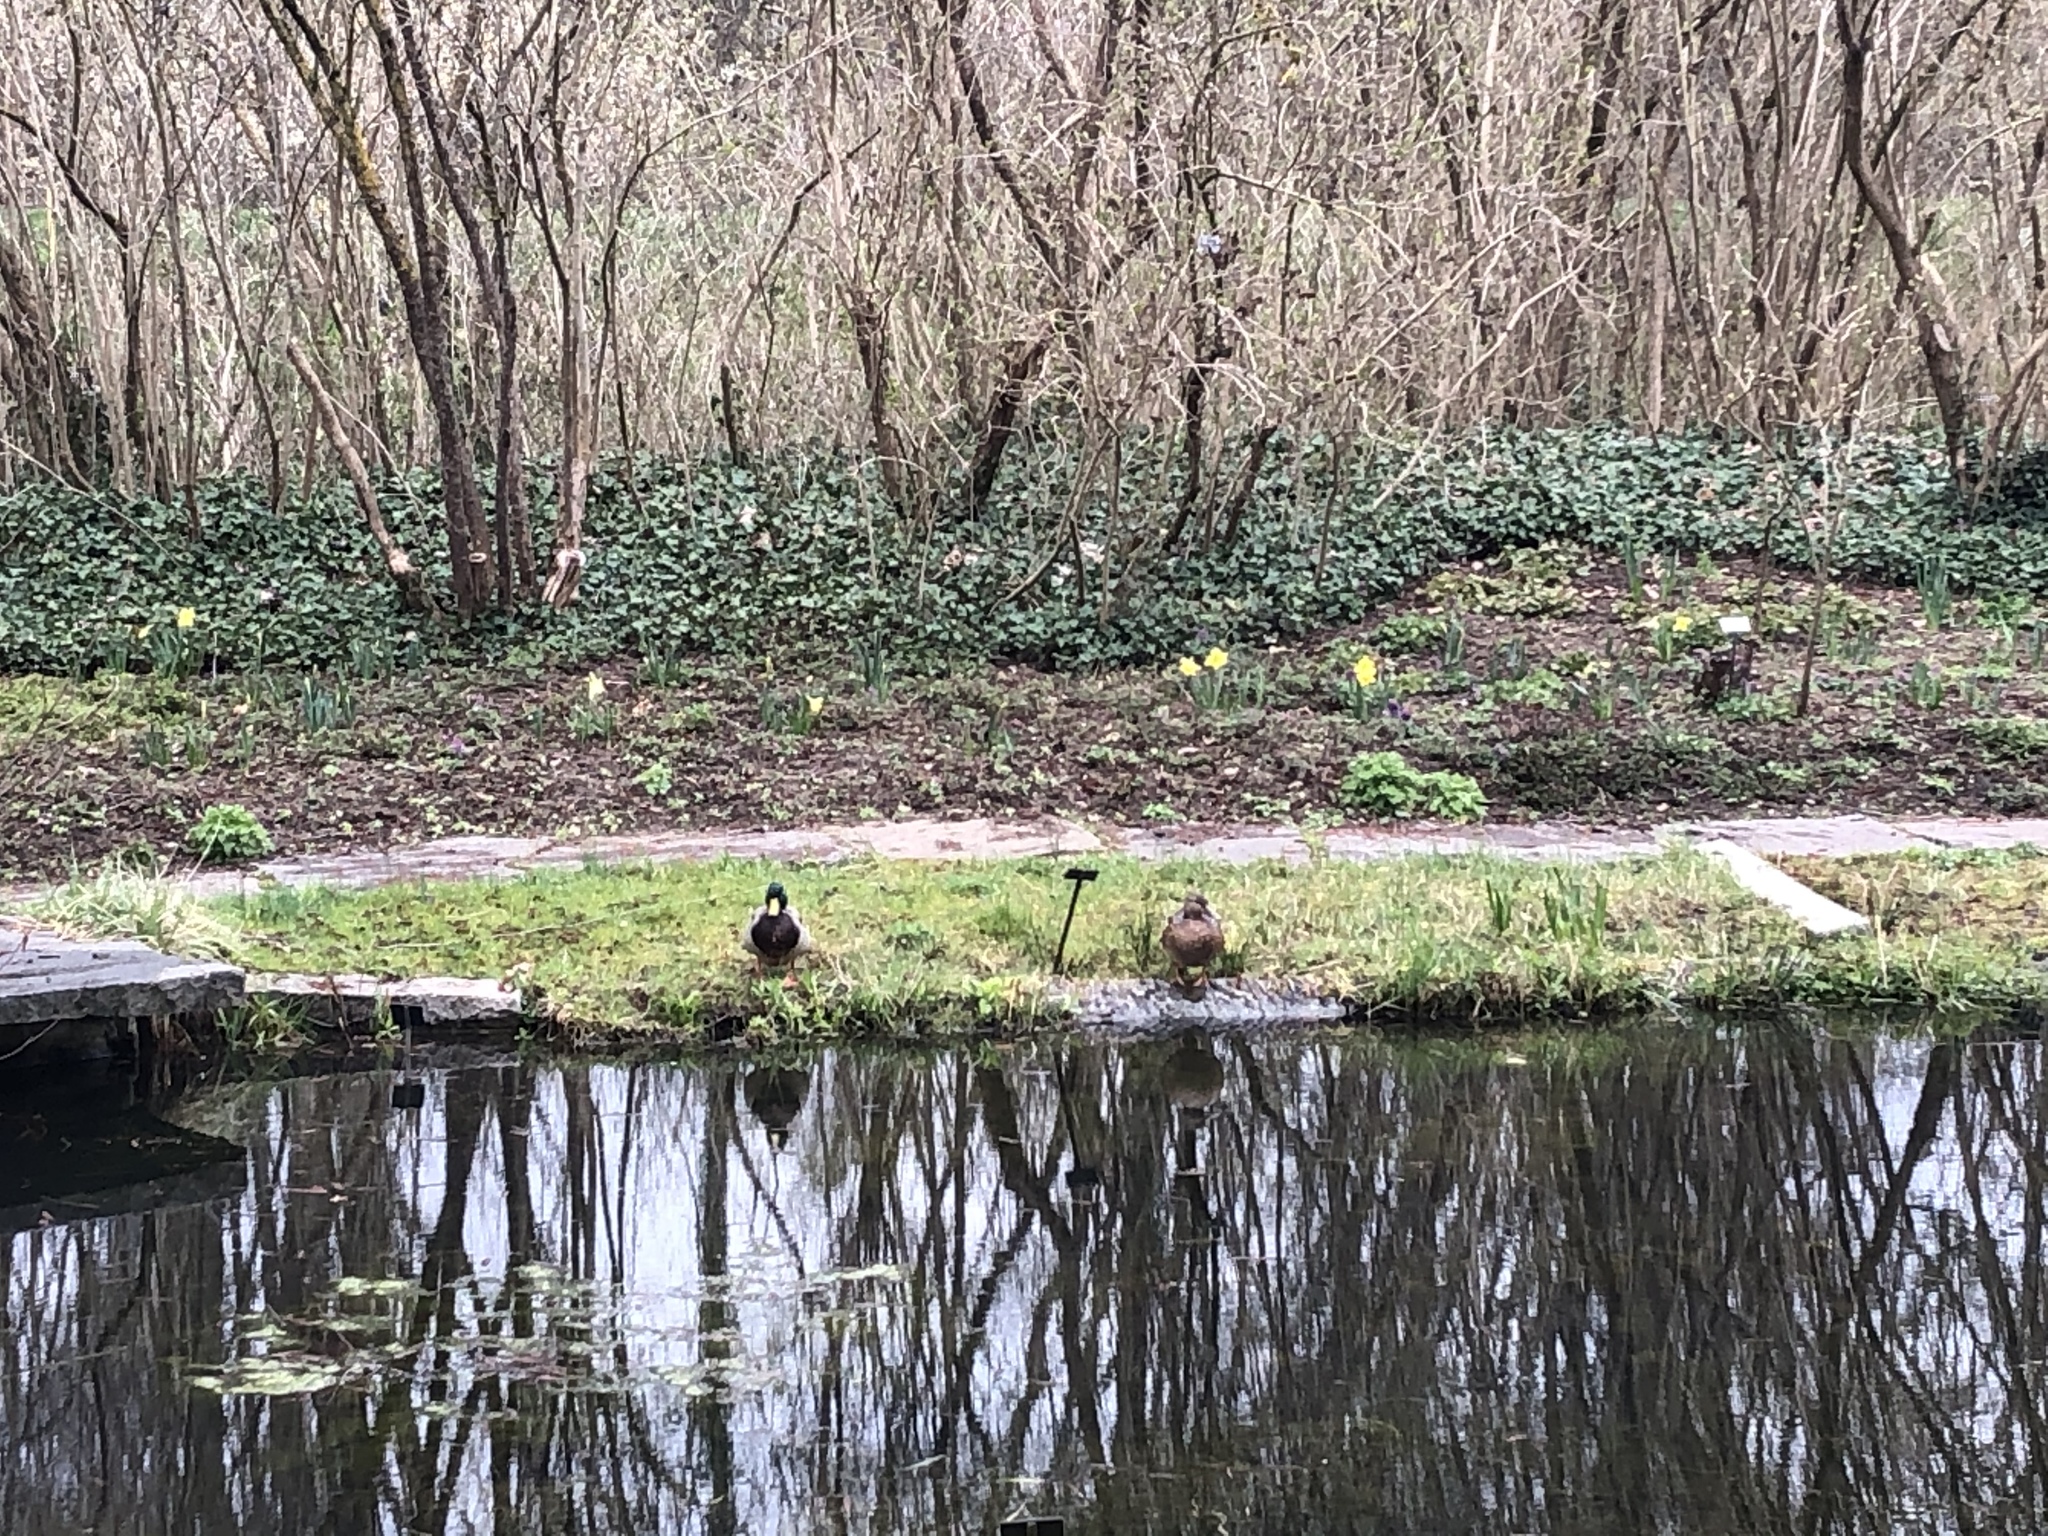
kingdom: Animalia
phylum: Chordata
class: Aves
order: Anseriformes
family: Anatidae
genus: Anas
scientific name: Anas platyrhynchos
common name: Mallard
